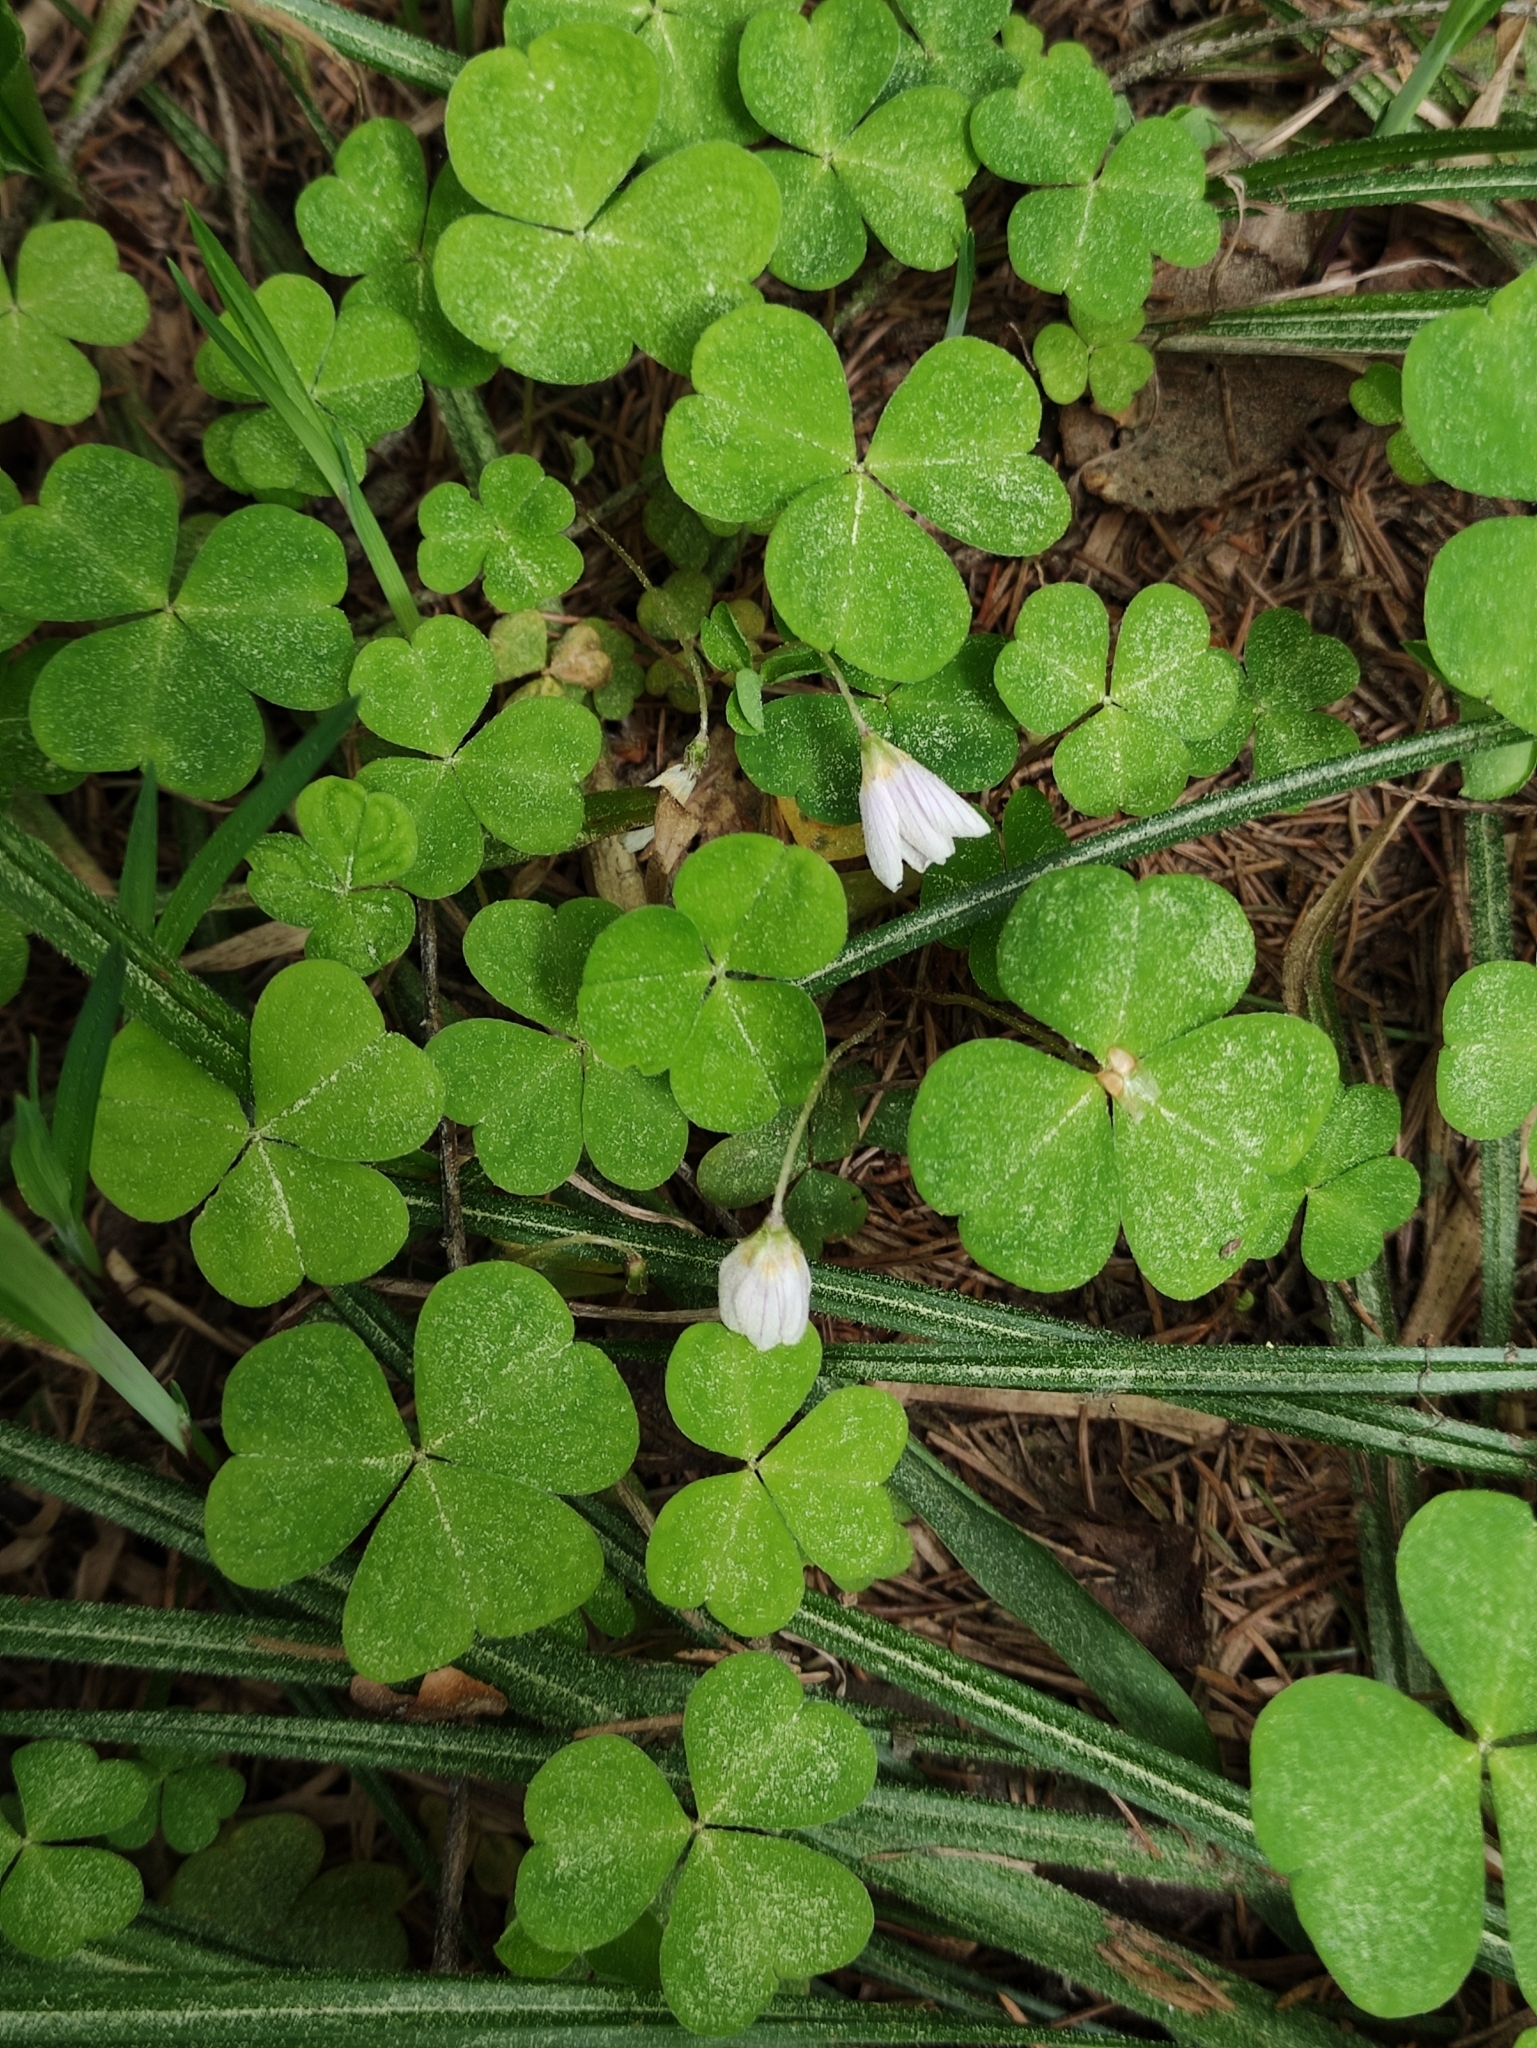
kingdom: Plantae
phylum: Tracheophyta
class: Magnoliopsida
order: Oxalidales
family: Oxalidaceae
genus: Oxalis
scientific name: Oxalis acetosella
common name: Wood-sorrel
